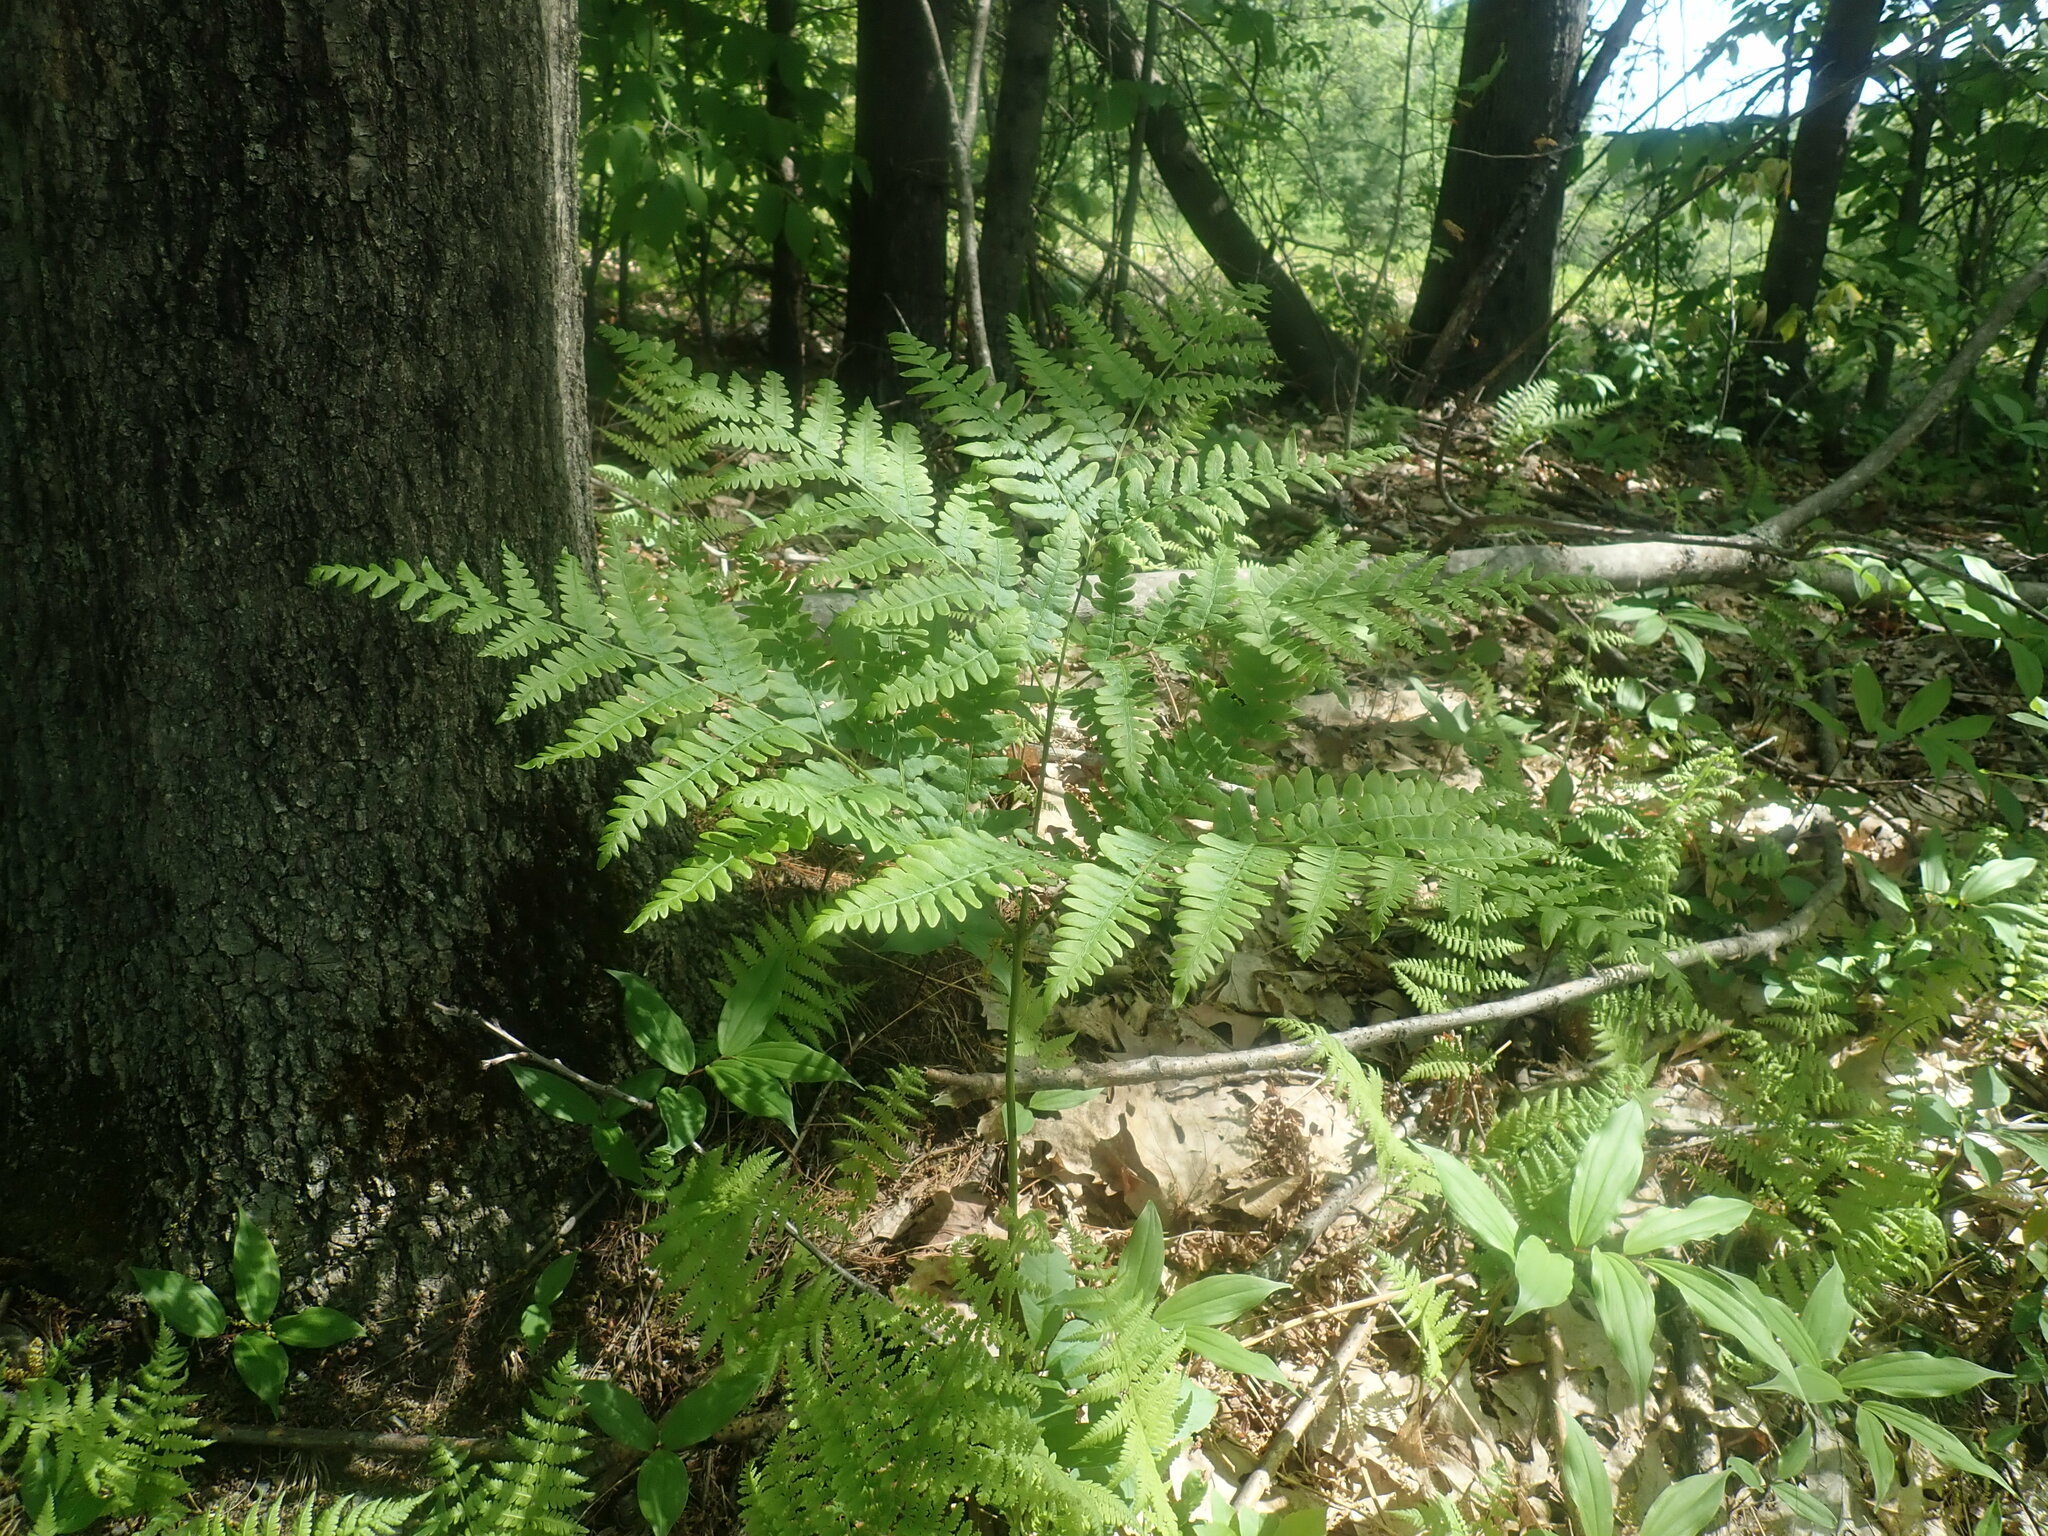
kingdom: Plantae
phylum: Tracheophyta
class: Polypodiopsida
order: Polypodiales
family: Dennstaedtiaceae
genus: Pteridium
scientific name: Pteridium aquilinum
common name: Bracken
